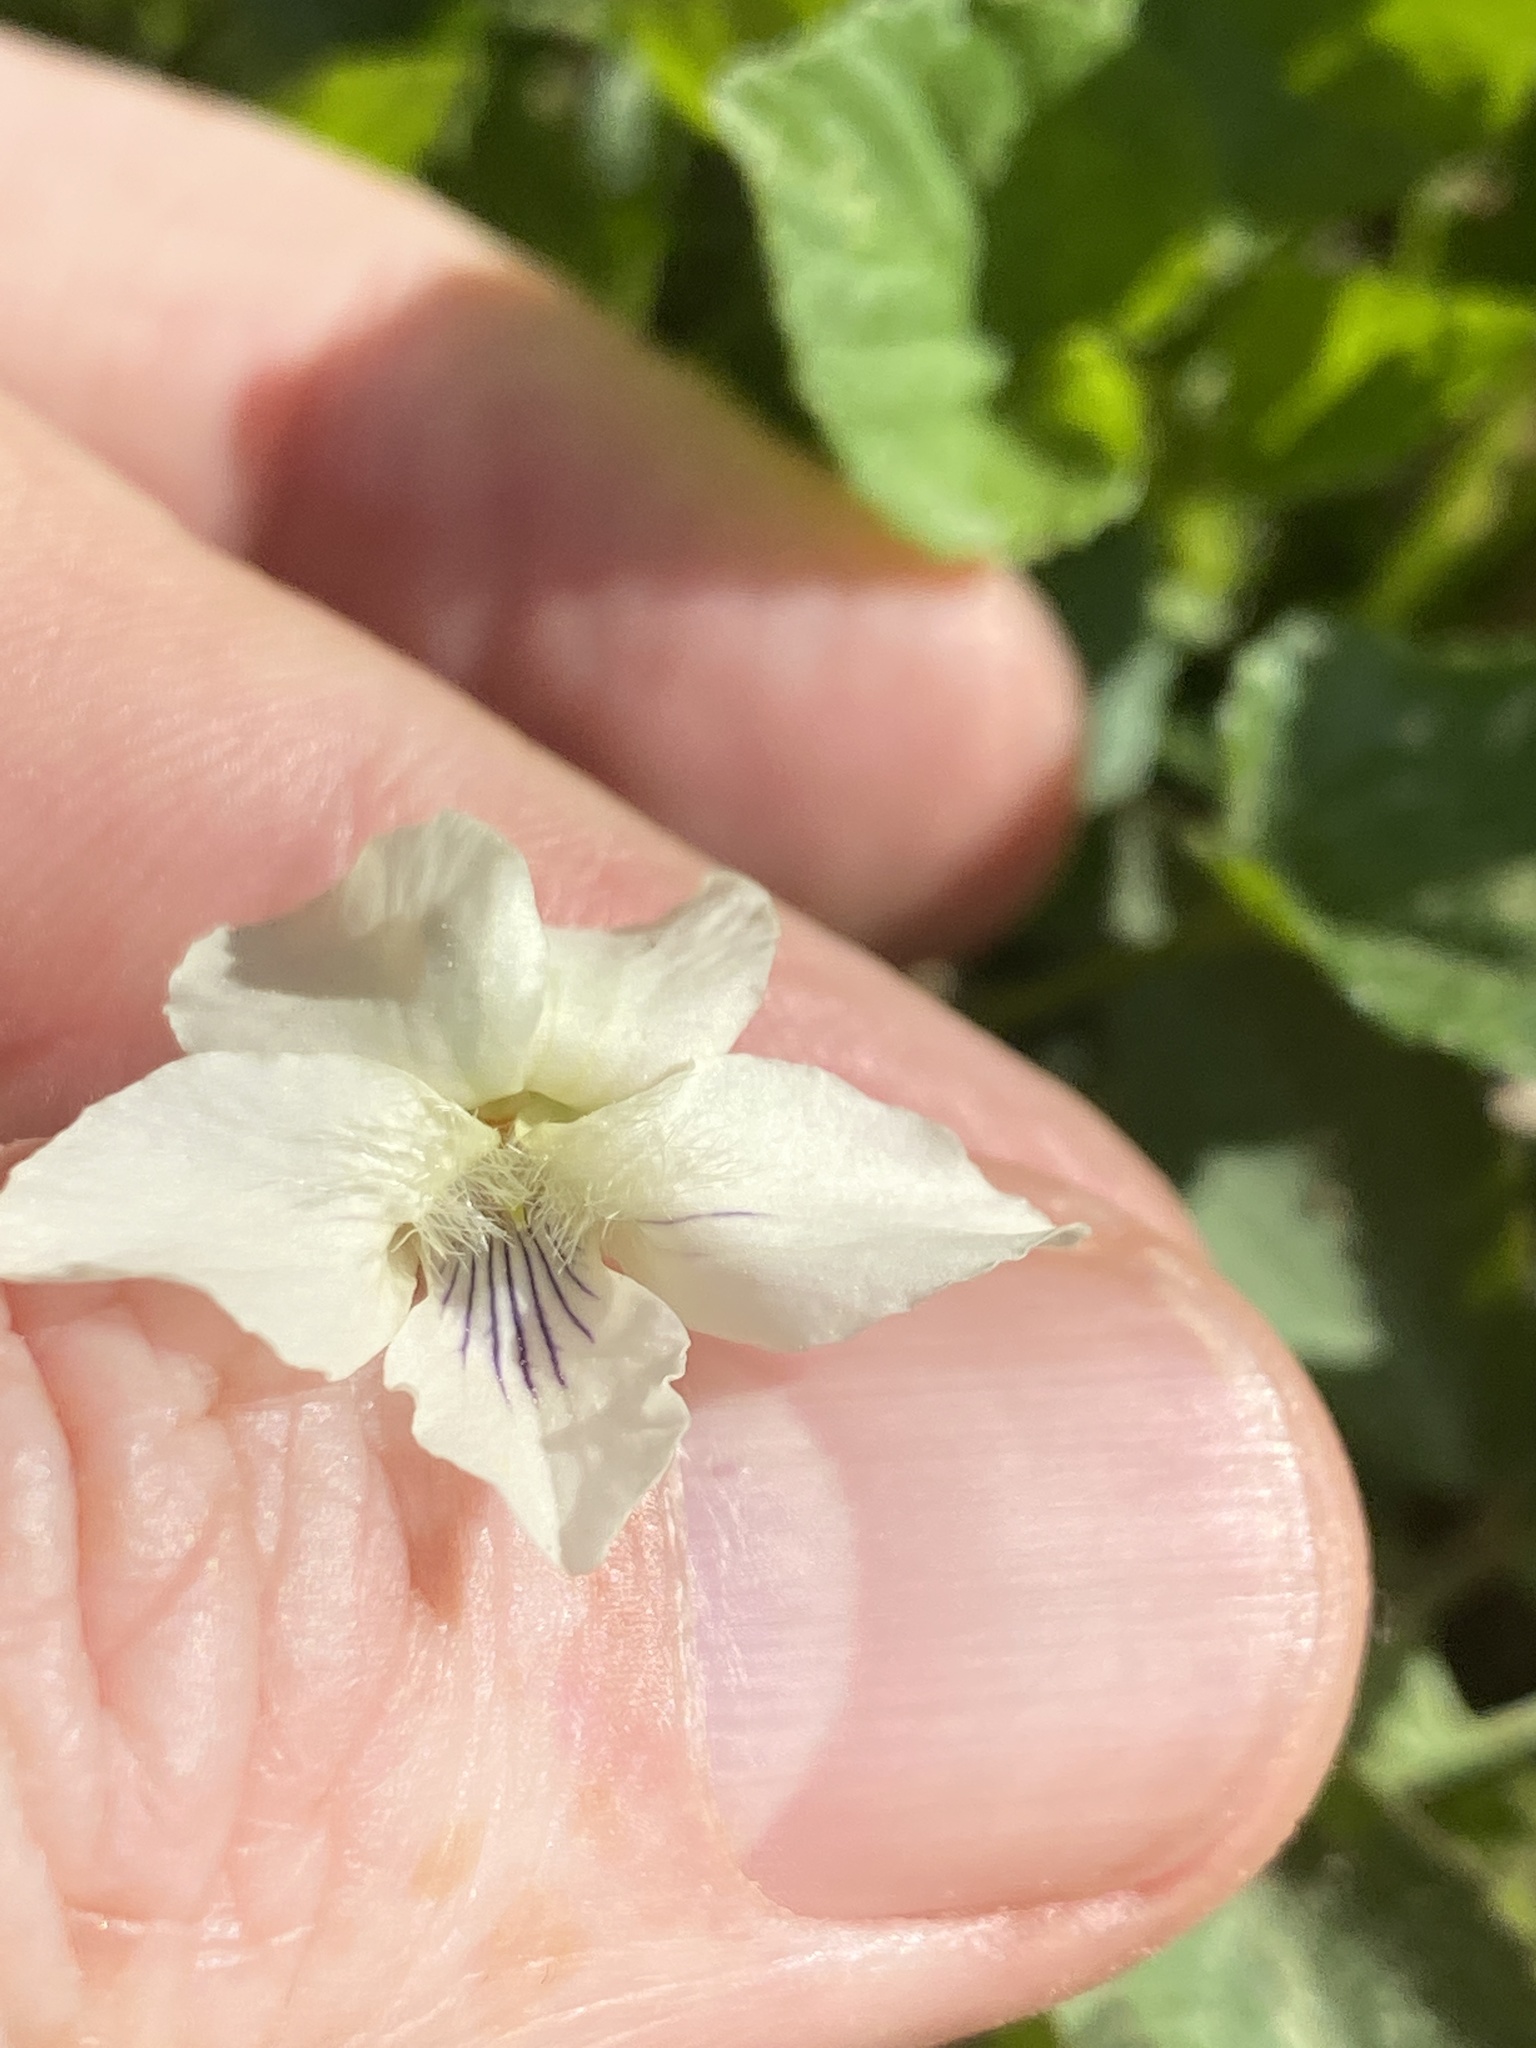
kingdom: Plantae
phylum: Tracheophyta
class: Magnoliopsida
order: Malpighiales
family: Violaceae
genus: Viola
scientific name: Viola striata
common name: Cream violet
